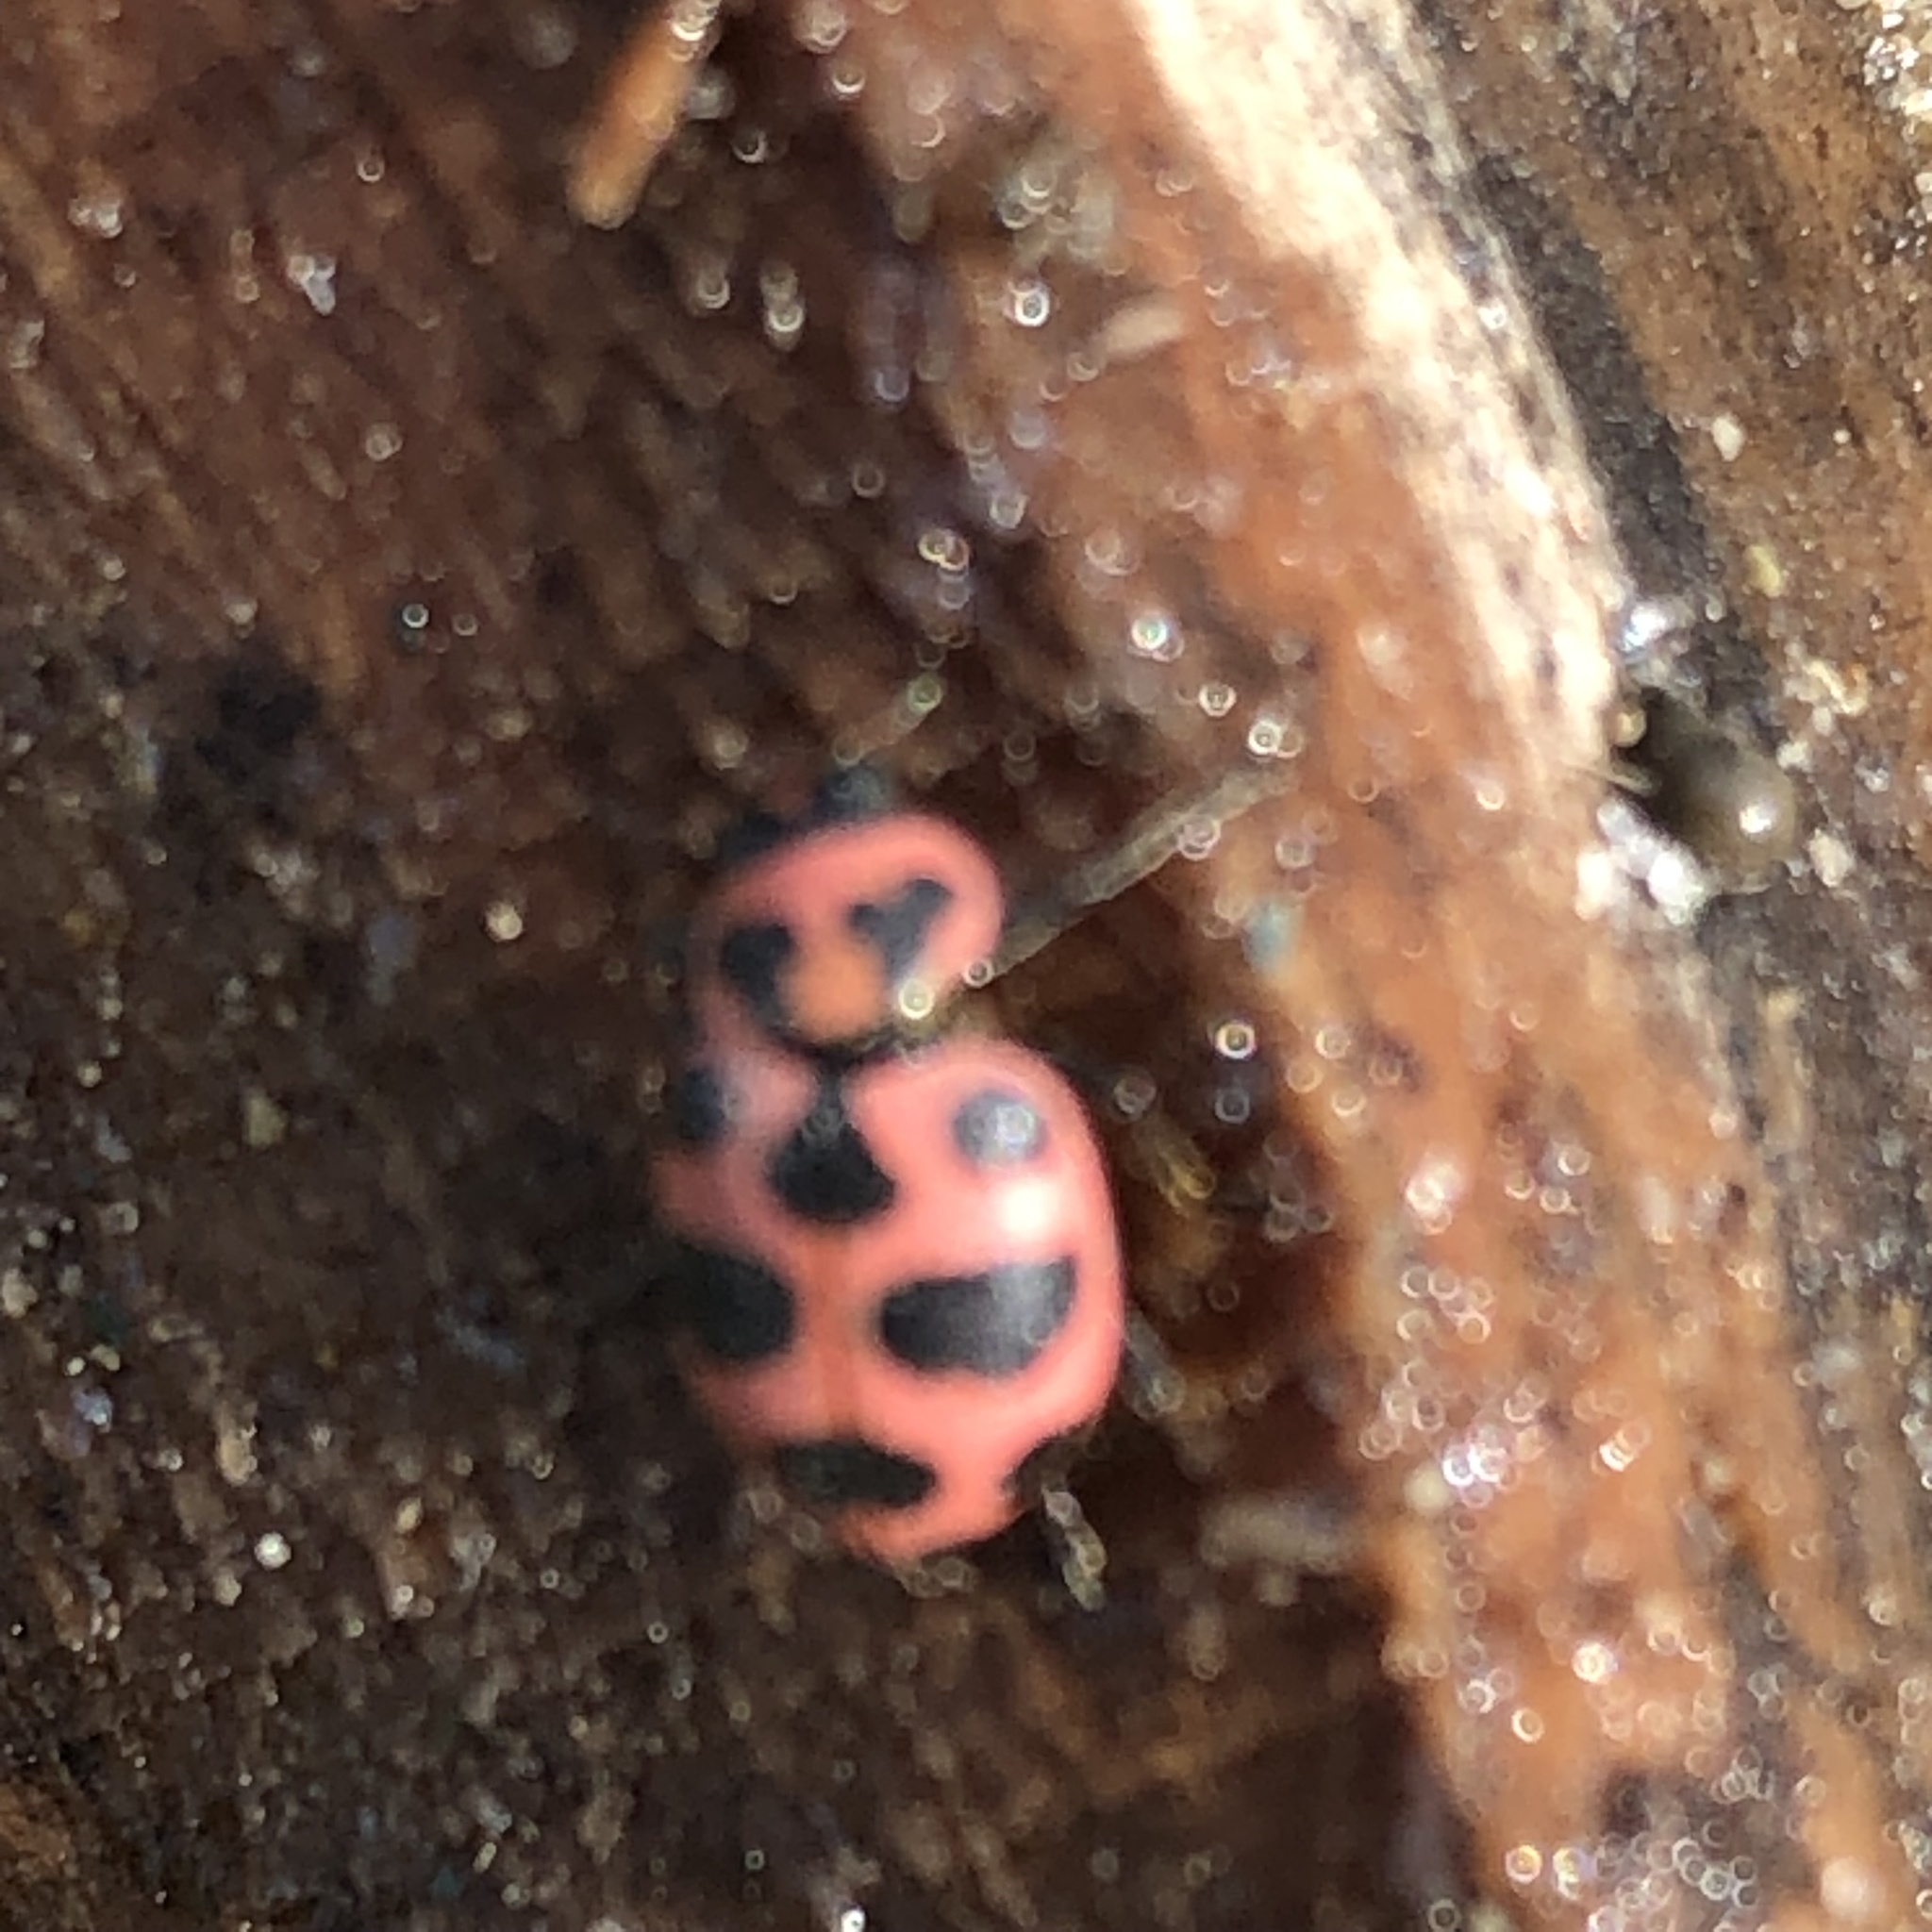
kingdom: Animalia
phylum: Arthropoda
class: Insecta
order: Coleoptera
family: Coccinellidae
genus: Coleomegilla
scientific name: Coleomegilla maculata
